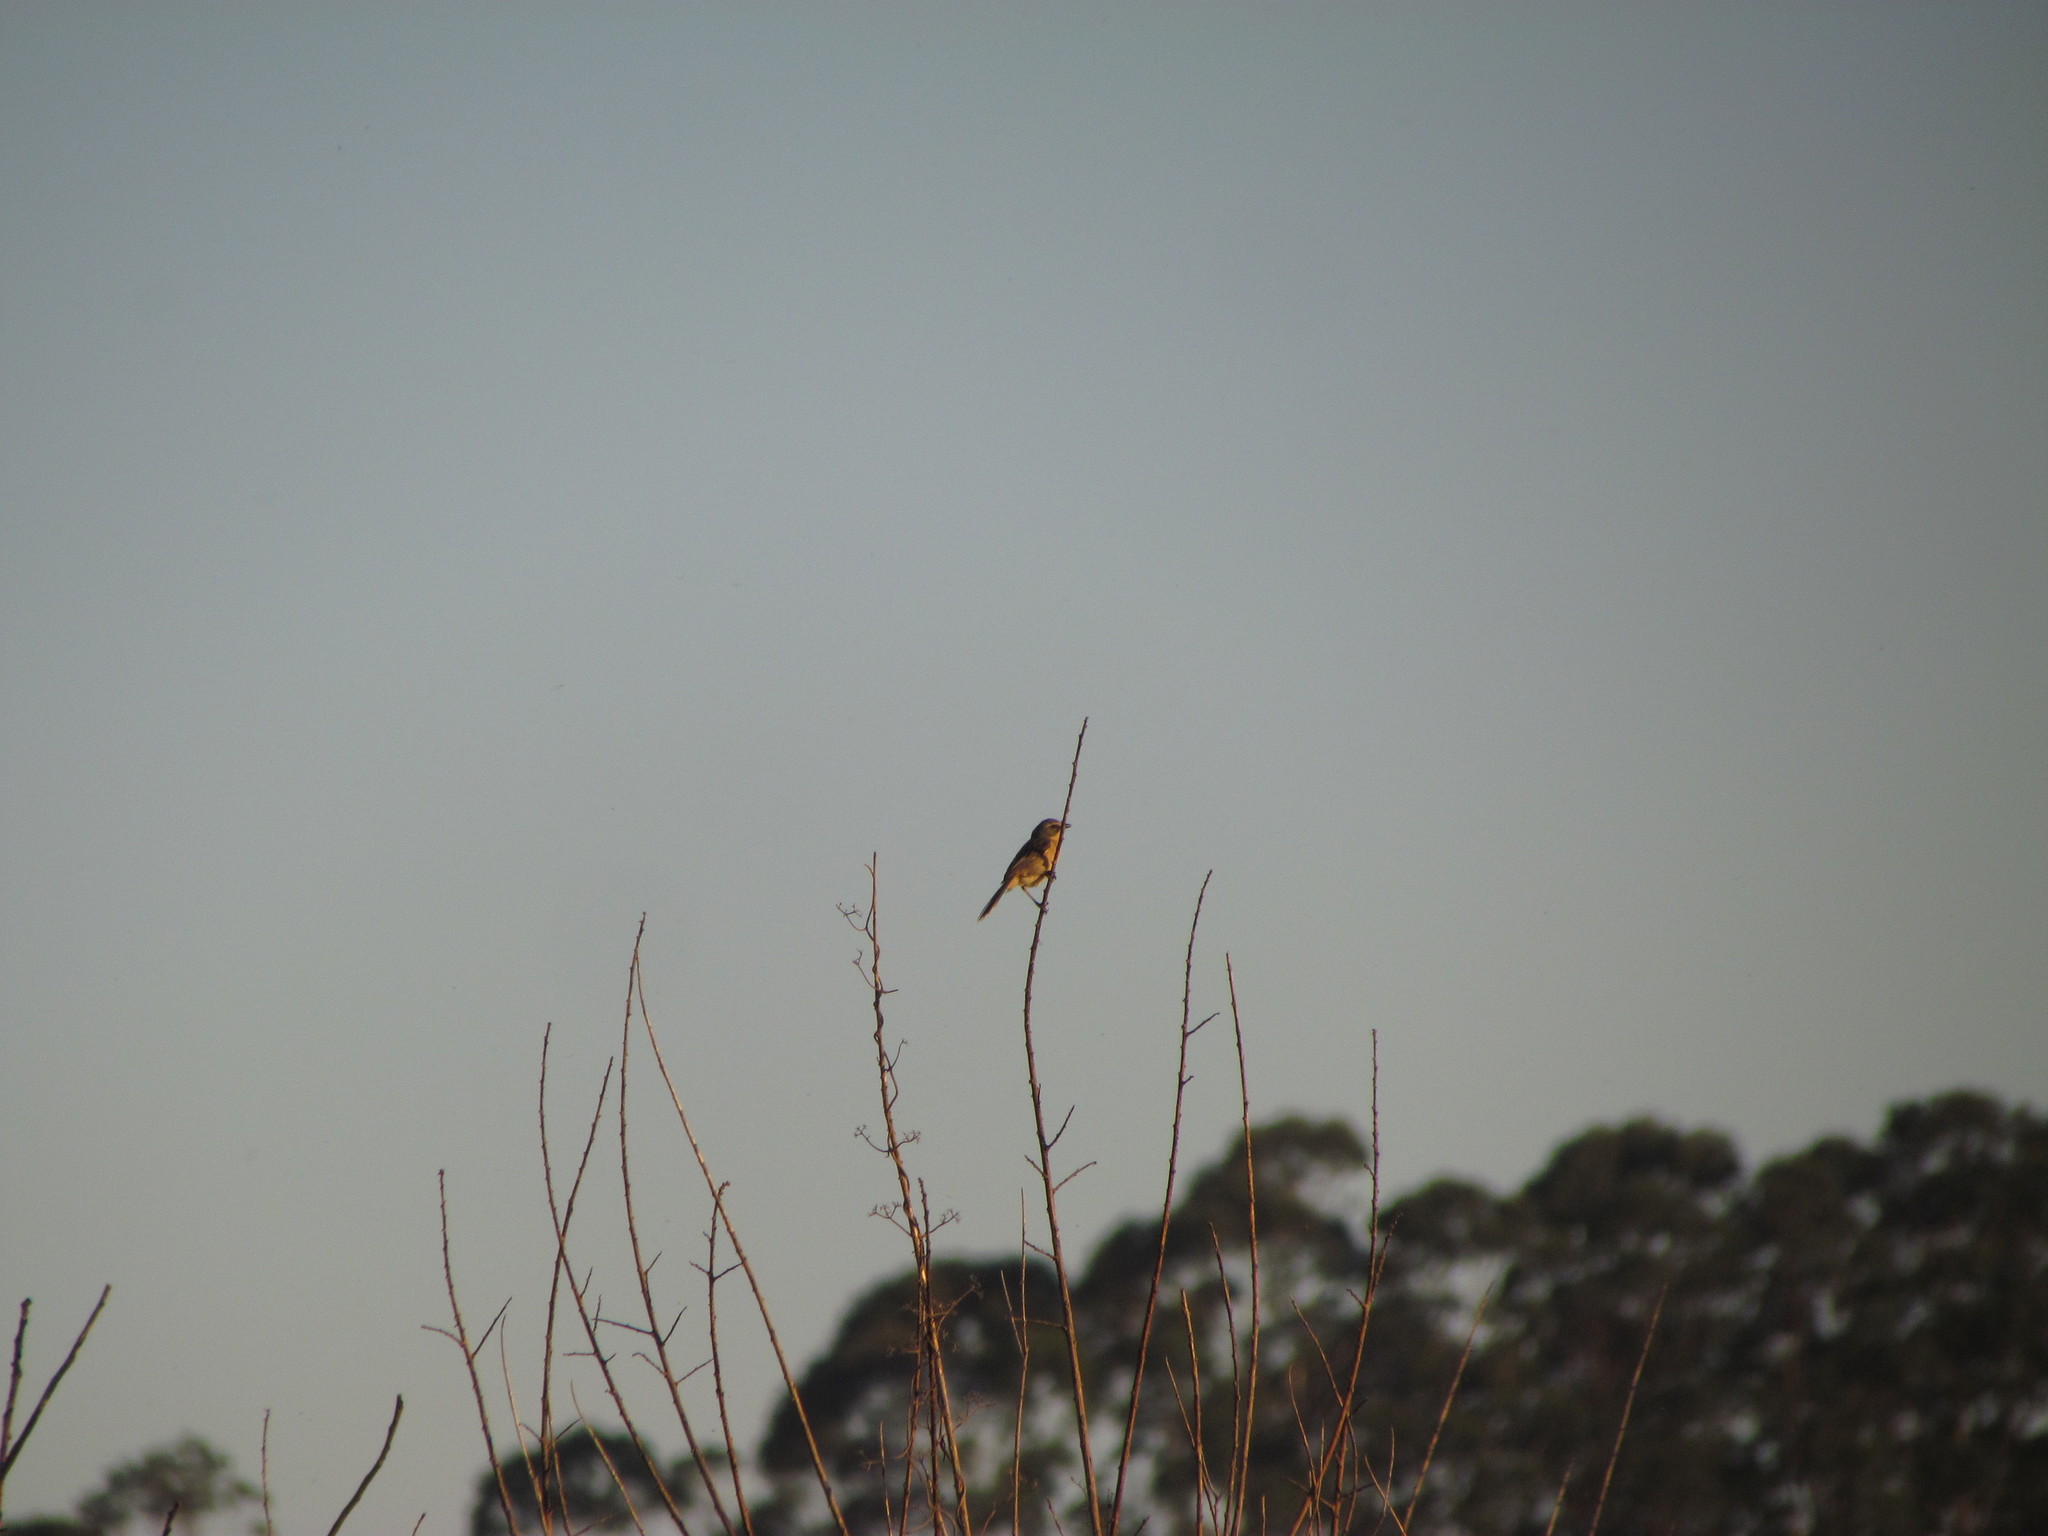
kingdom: Animalia
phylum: Chordata
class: Aves
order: Passeriformes
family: Thraupidae
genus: Donacospiza
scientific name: Donacospiza albifrons
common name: Long-tailed reed finch
